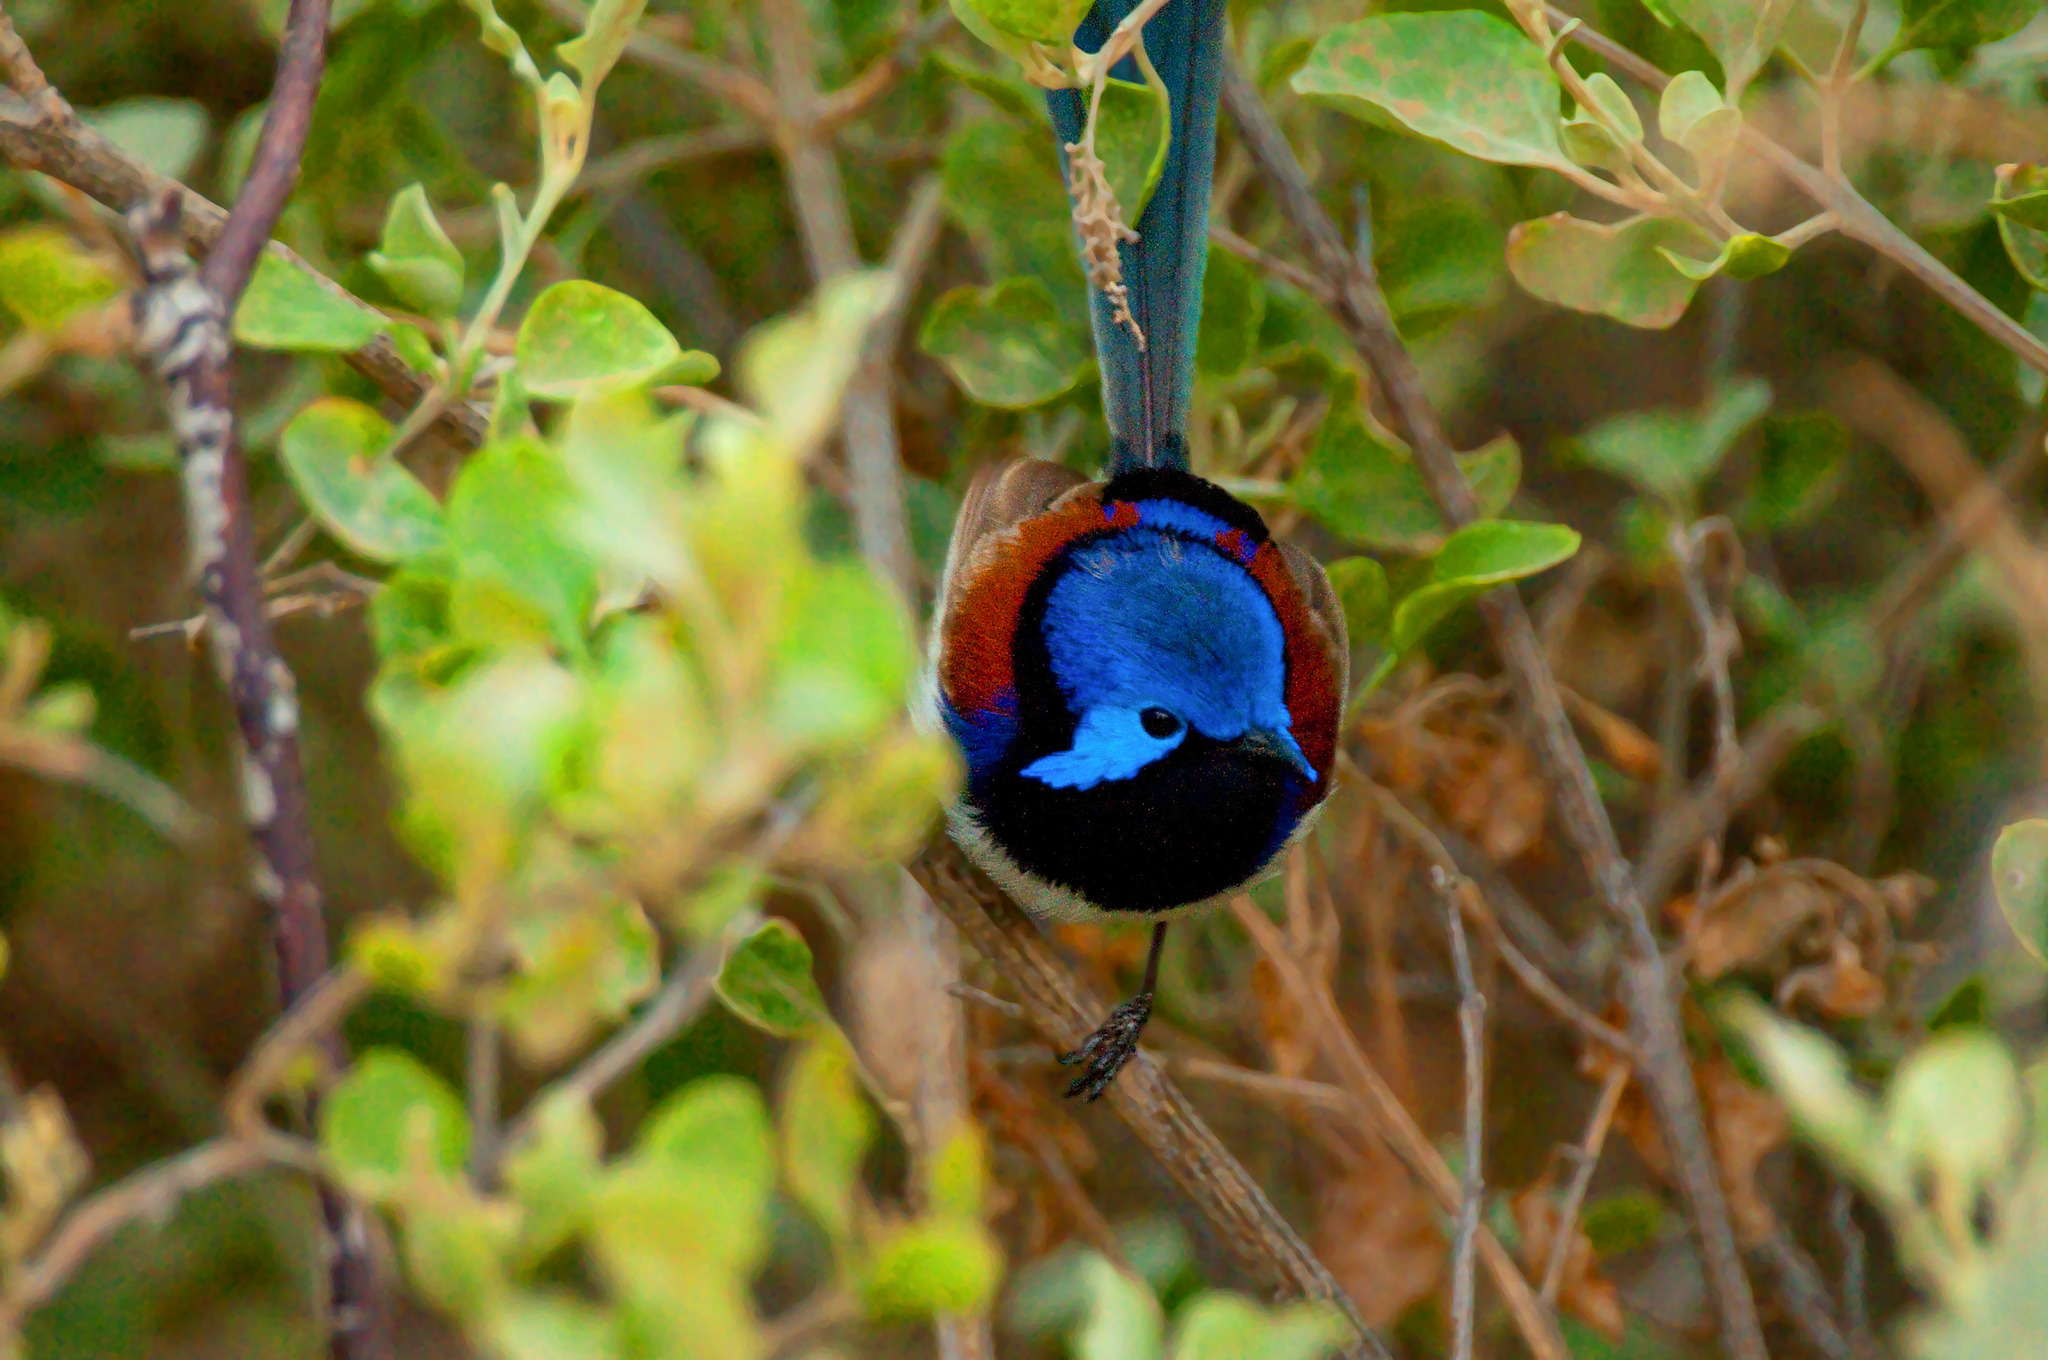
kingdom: Animalia
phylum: Chordata
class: Aves
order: Passeriformes
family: Maluridae
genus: Malurus
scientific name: Malurus assimilis
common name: Purple-backed fairywren
